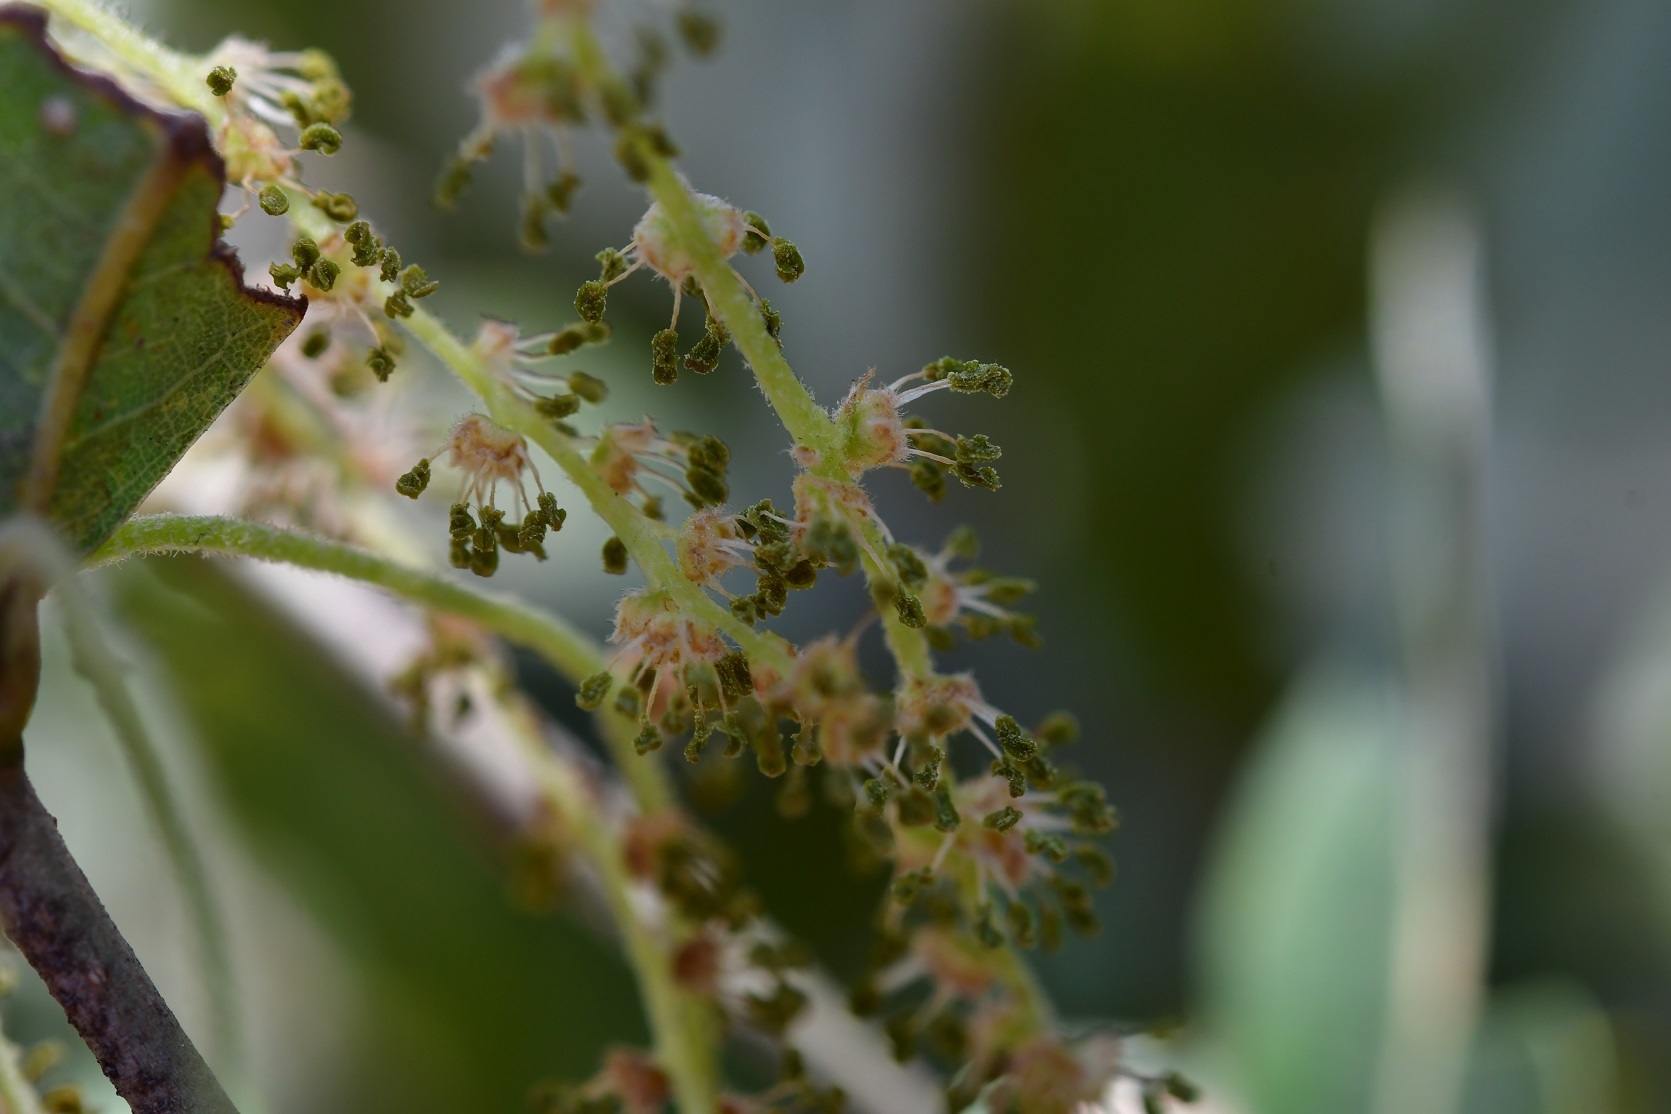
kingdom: Plantae
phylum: Tracheophyta
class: Magnoliopsida
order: Fagales
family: Fagaceae
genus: Quercus
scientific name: Quercus sebifera
